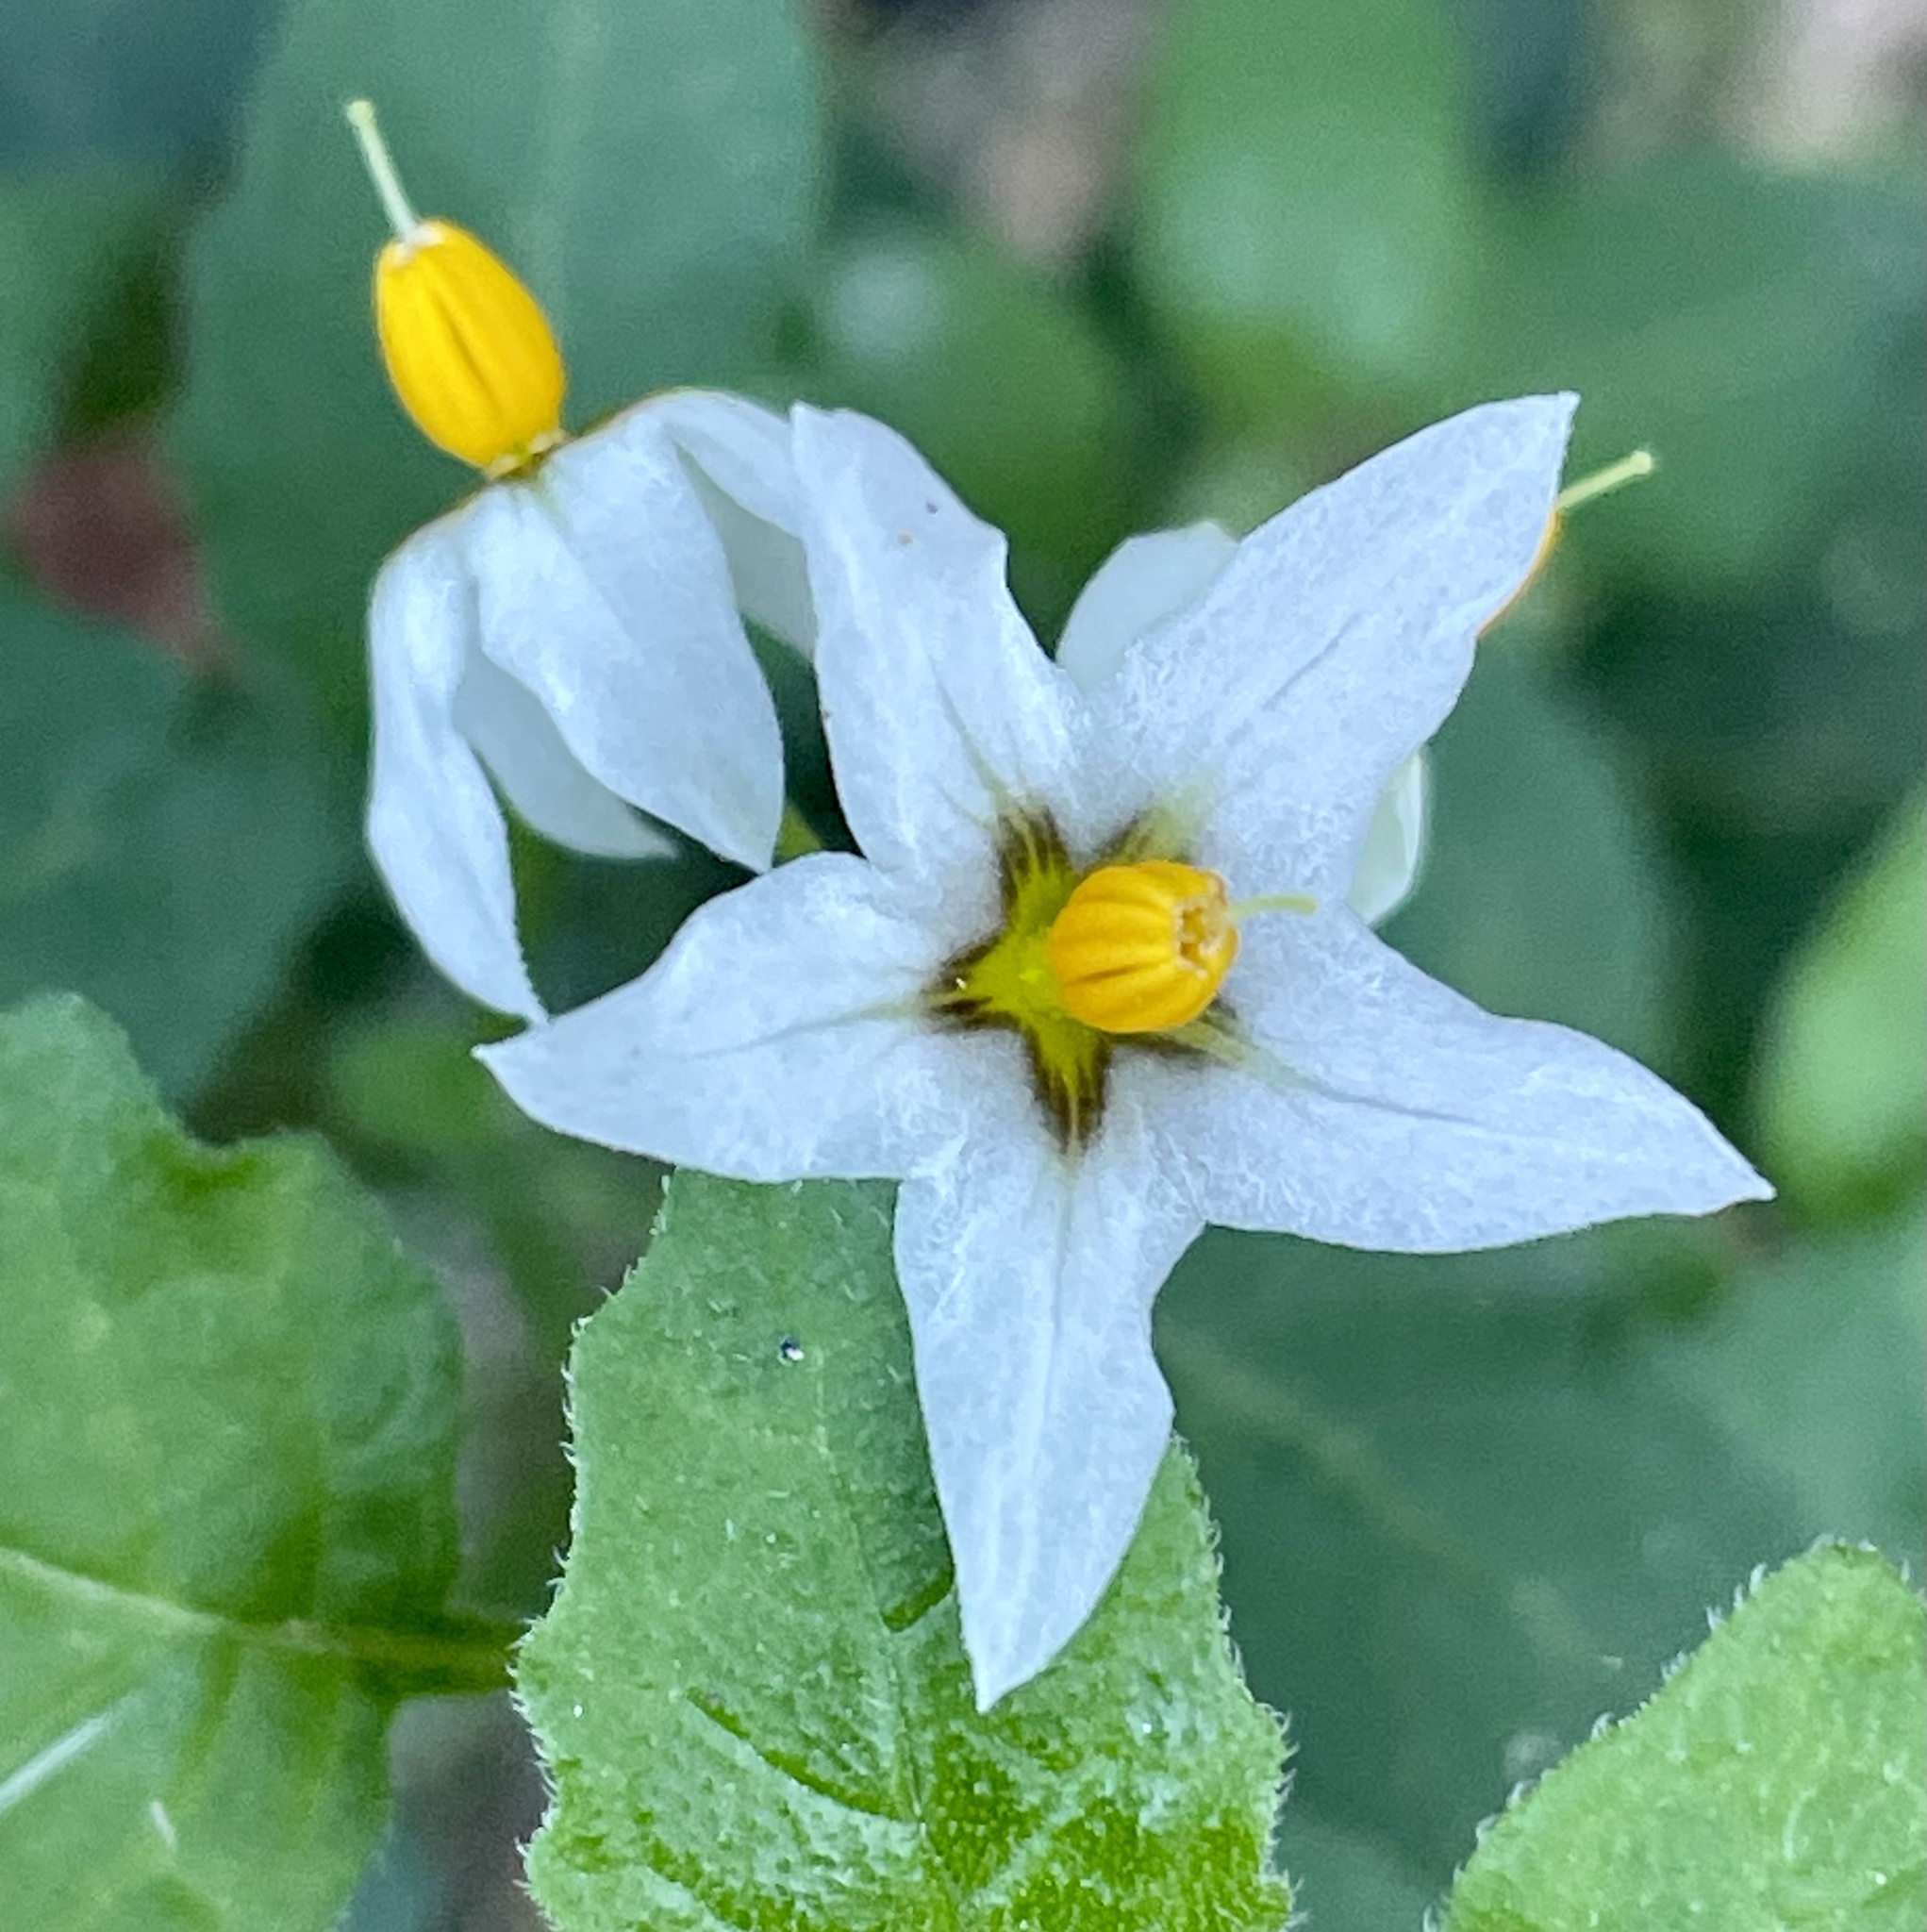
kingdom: Plantae
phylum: Tracheophyta
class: Magnoliopsida
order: Solanales
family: Solanaceae
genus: Solanum
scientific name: Solanum douglasii
